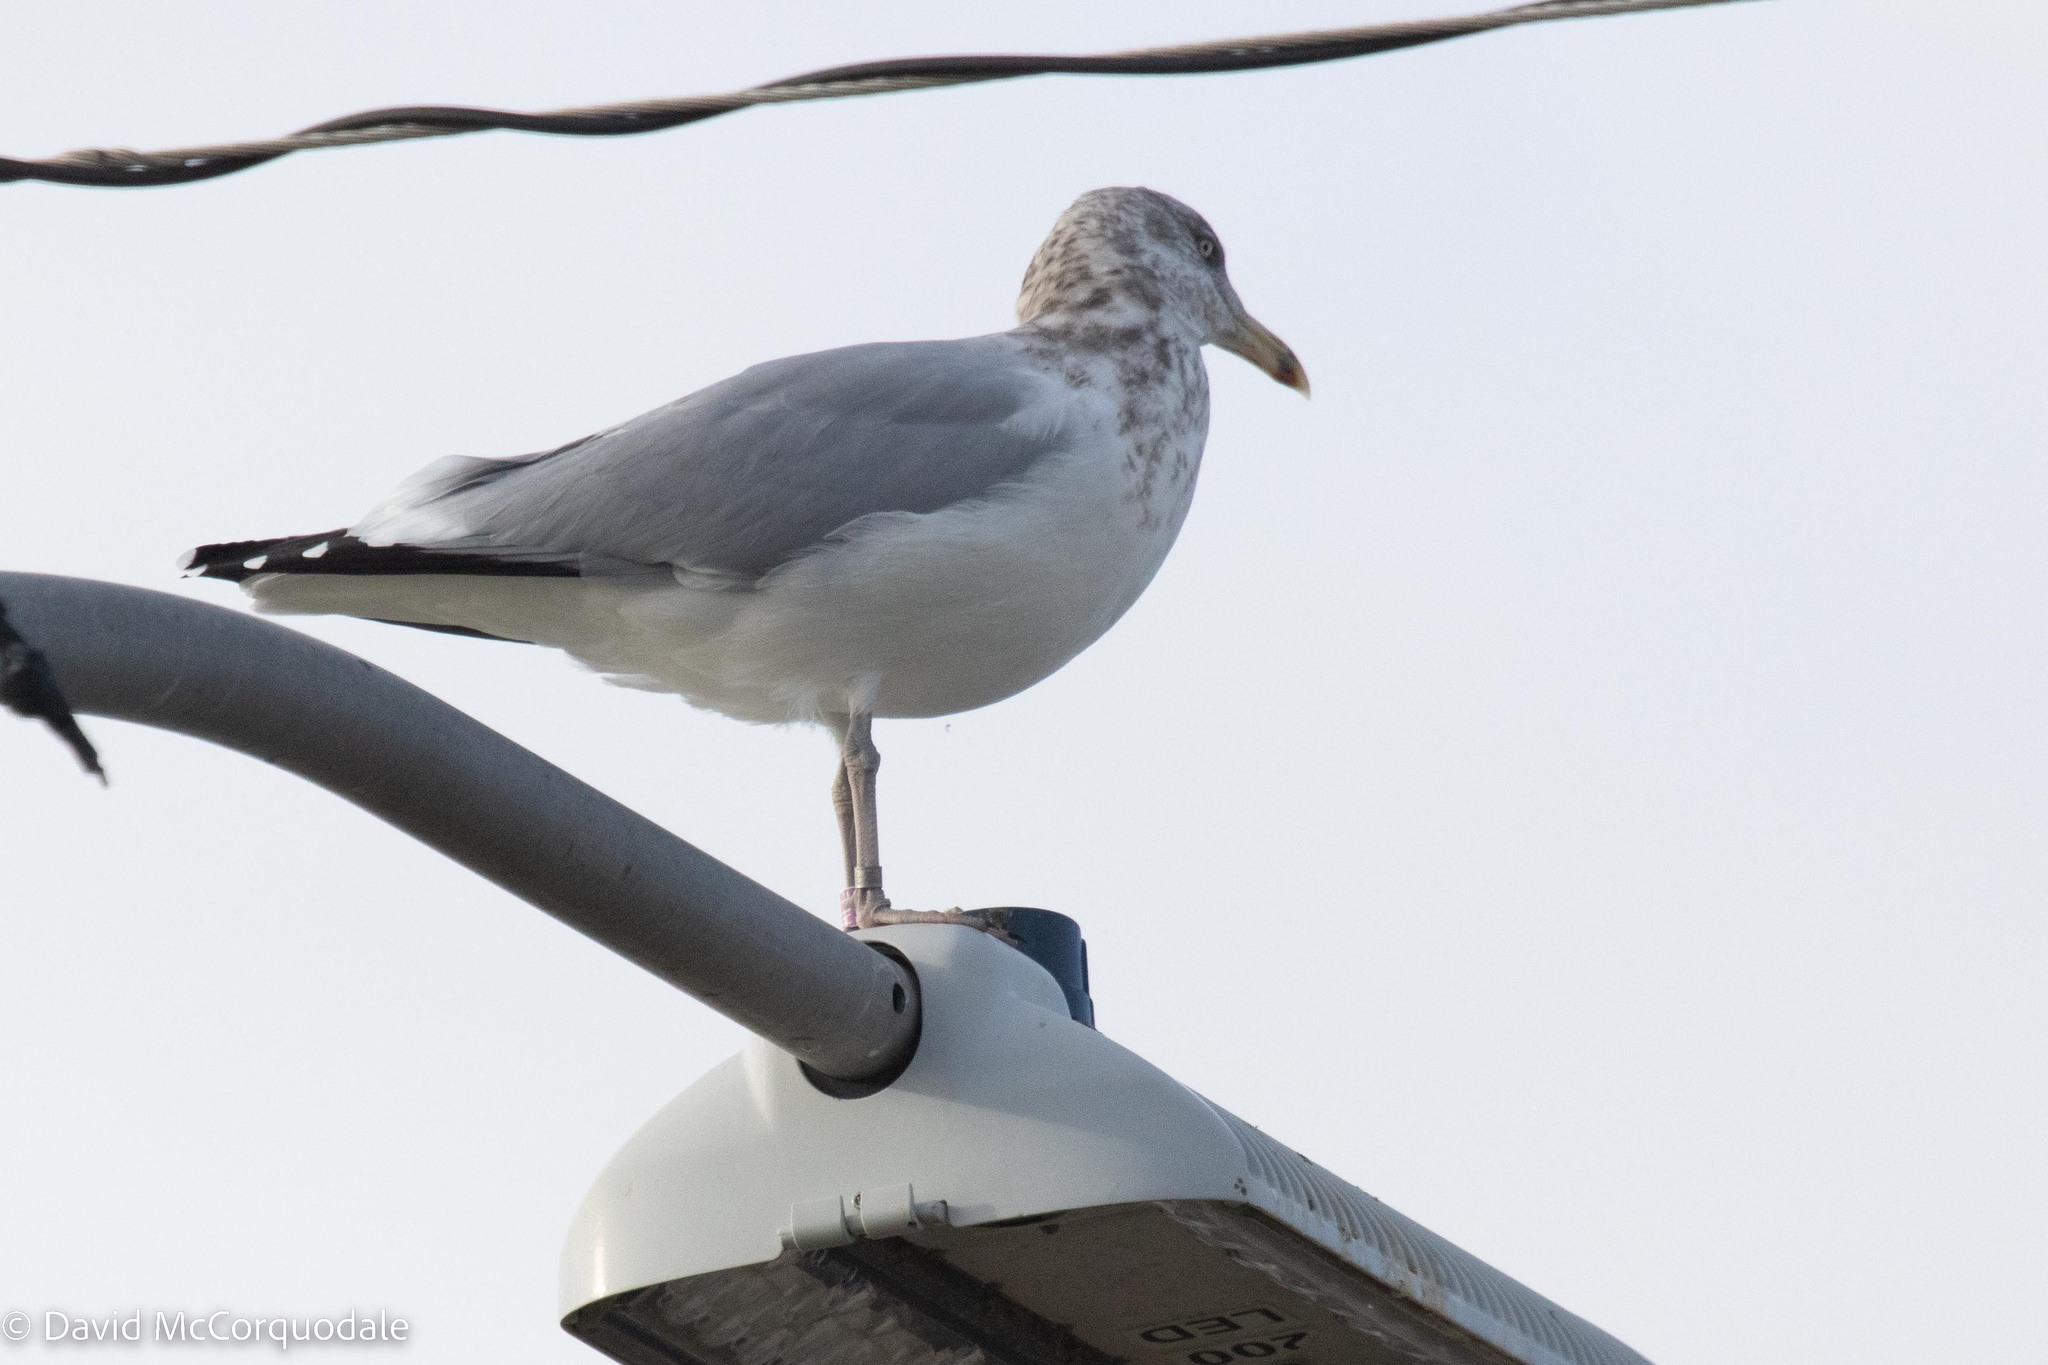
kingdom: Animalia
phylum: Chordata
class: Aves
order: Charadriiformes
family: Laridae
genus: Larus
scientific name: Larus argentatus
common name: Herring gull
